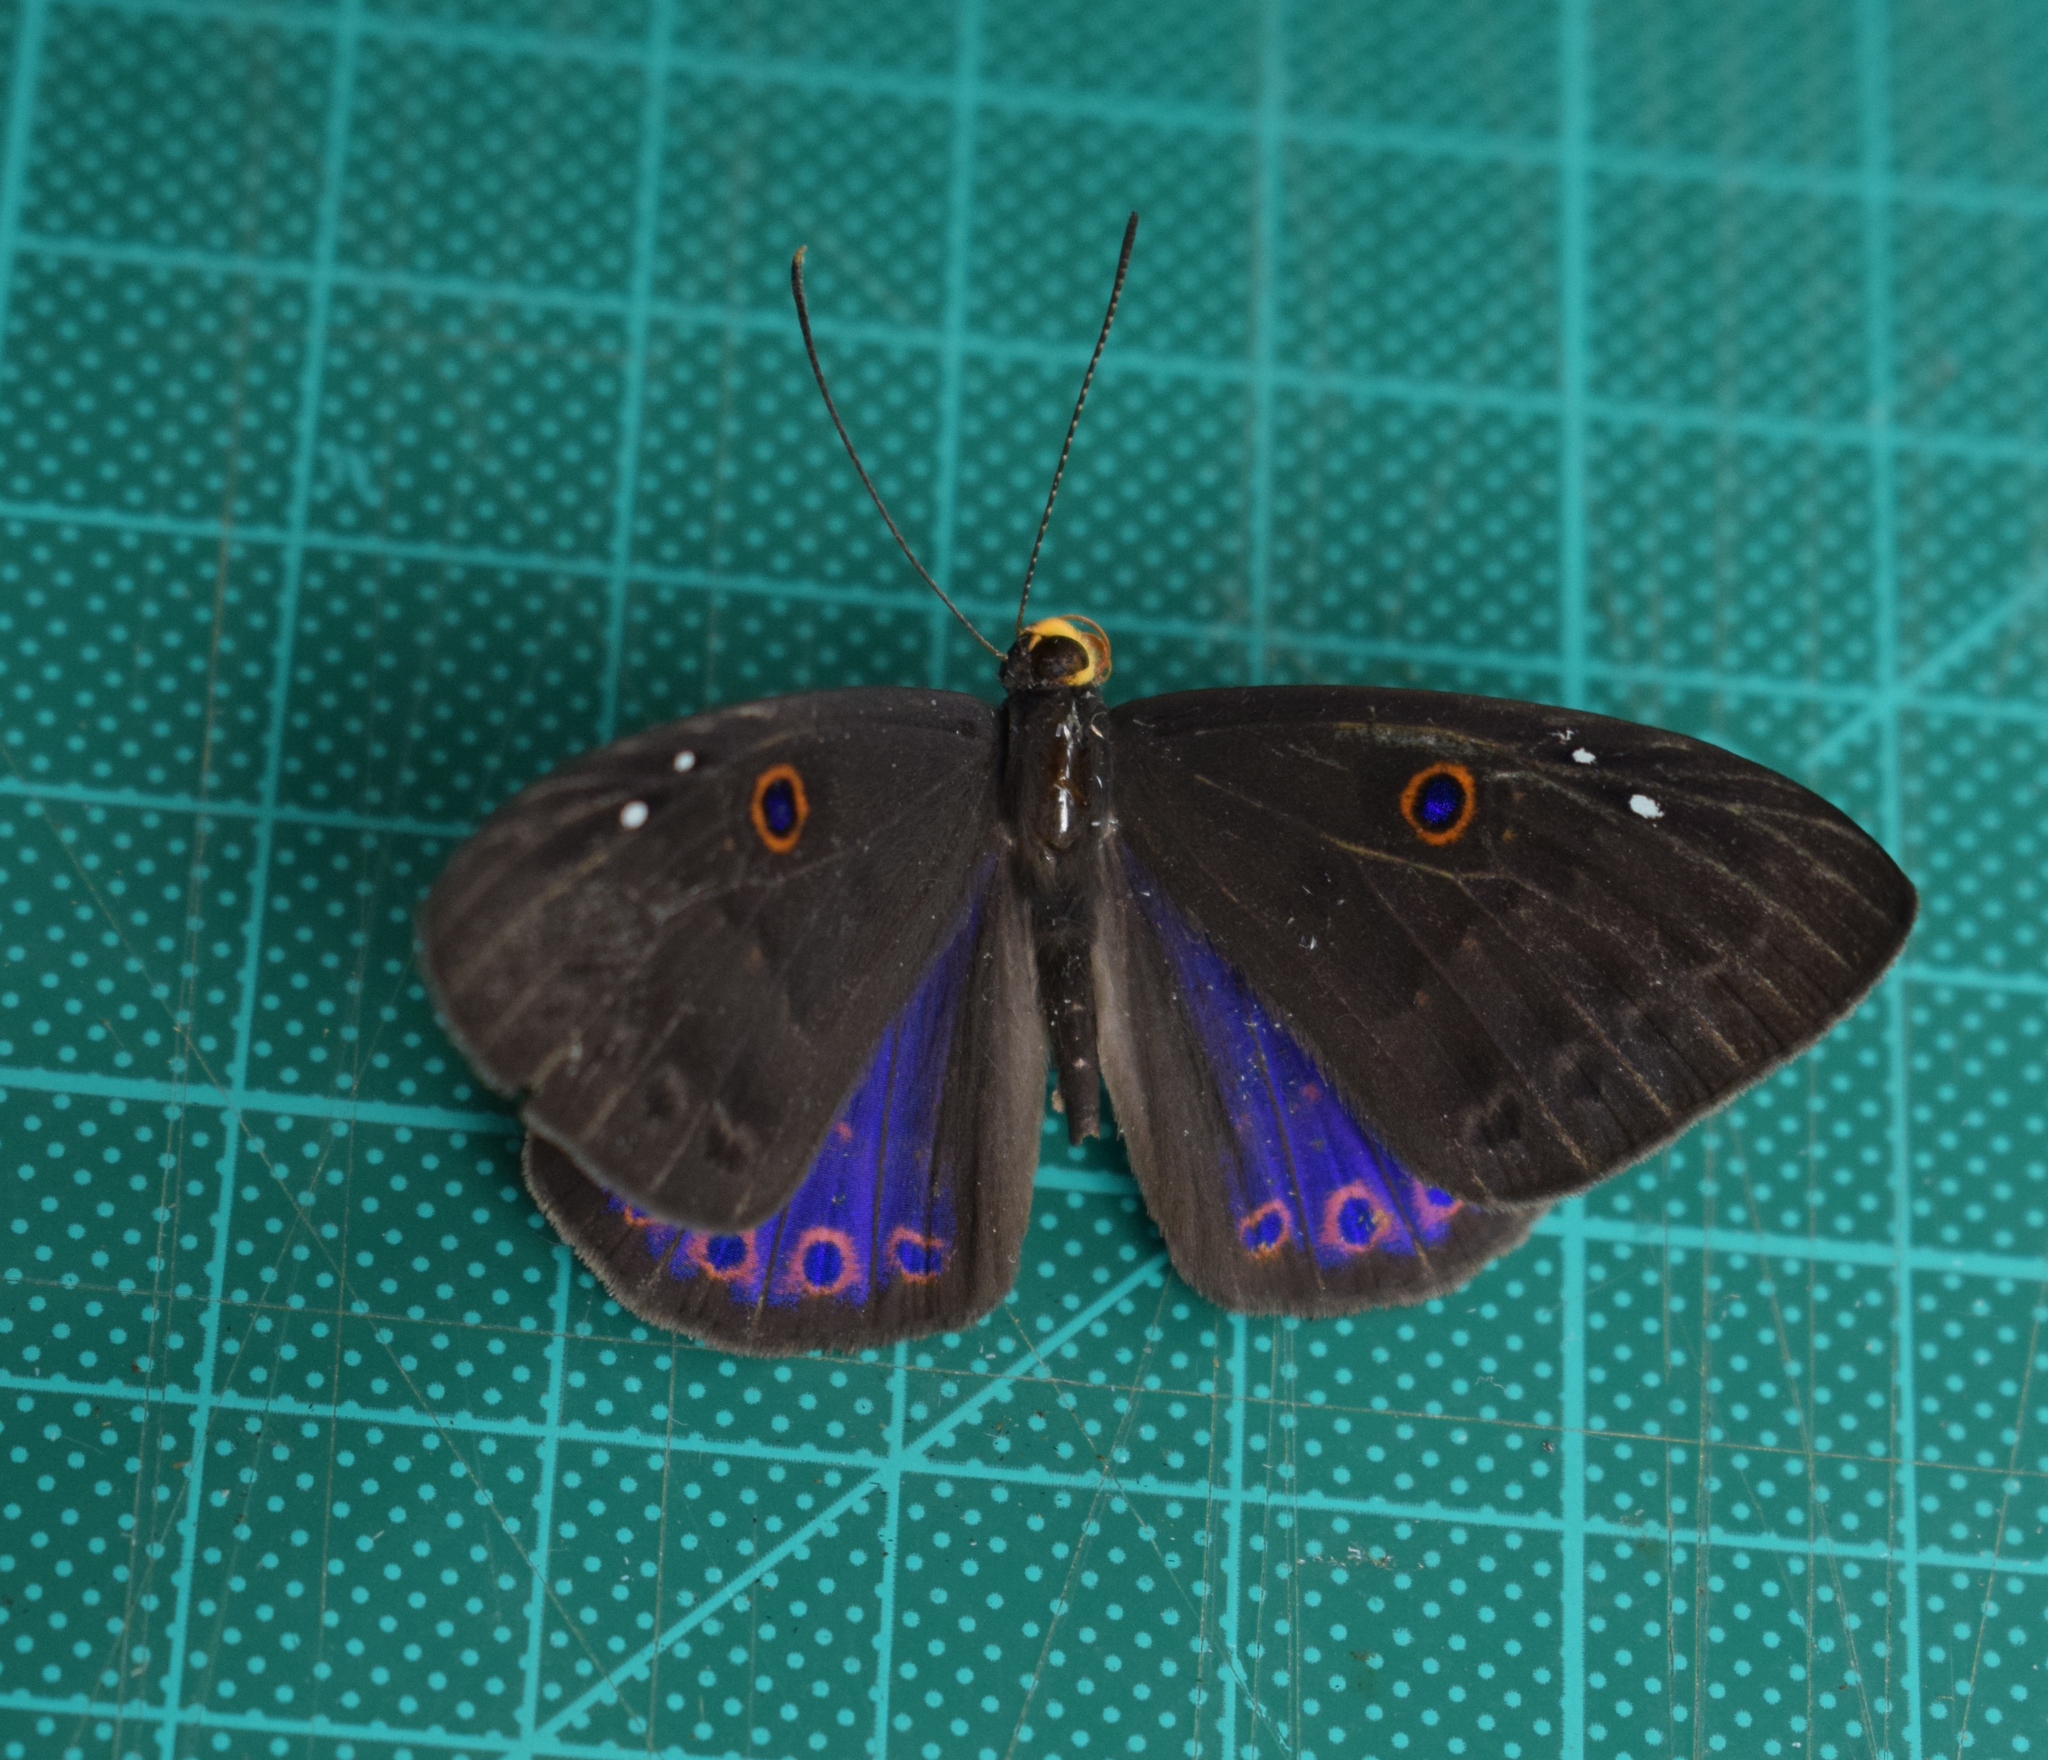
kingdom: Animalia
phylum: Cnidaria
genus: Eurybia
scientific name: Eurybia molochina
